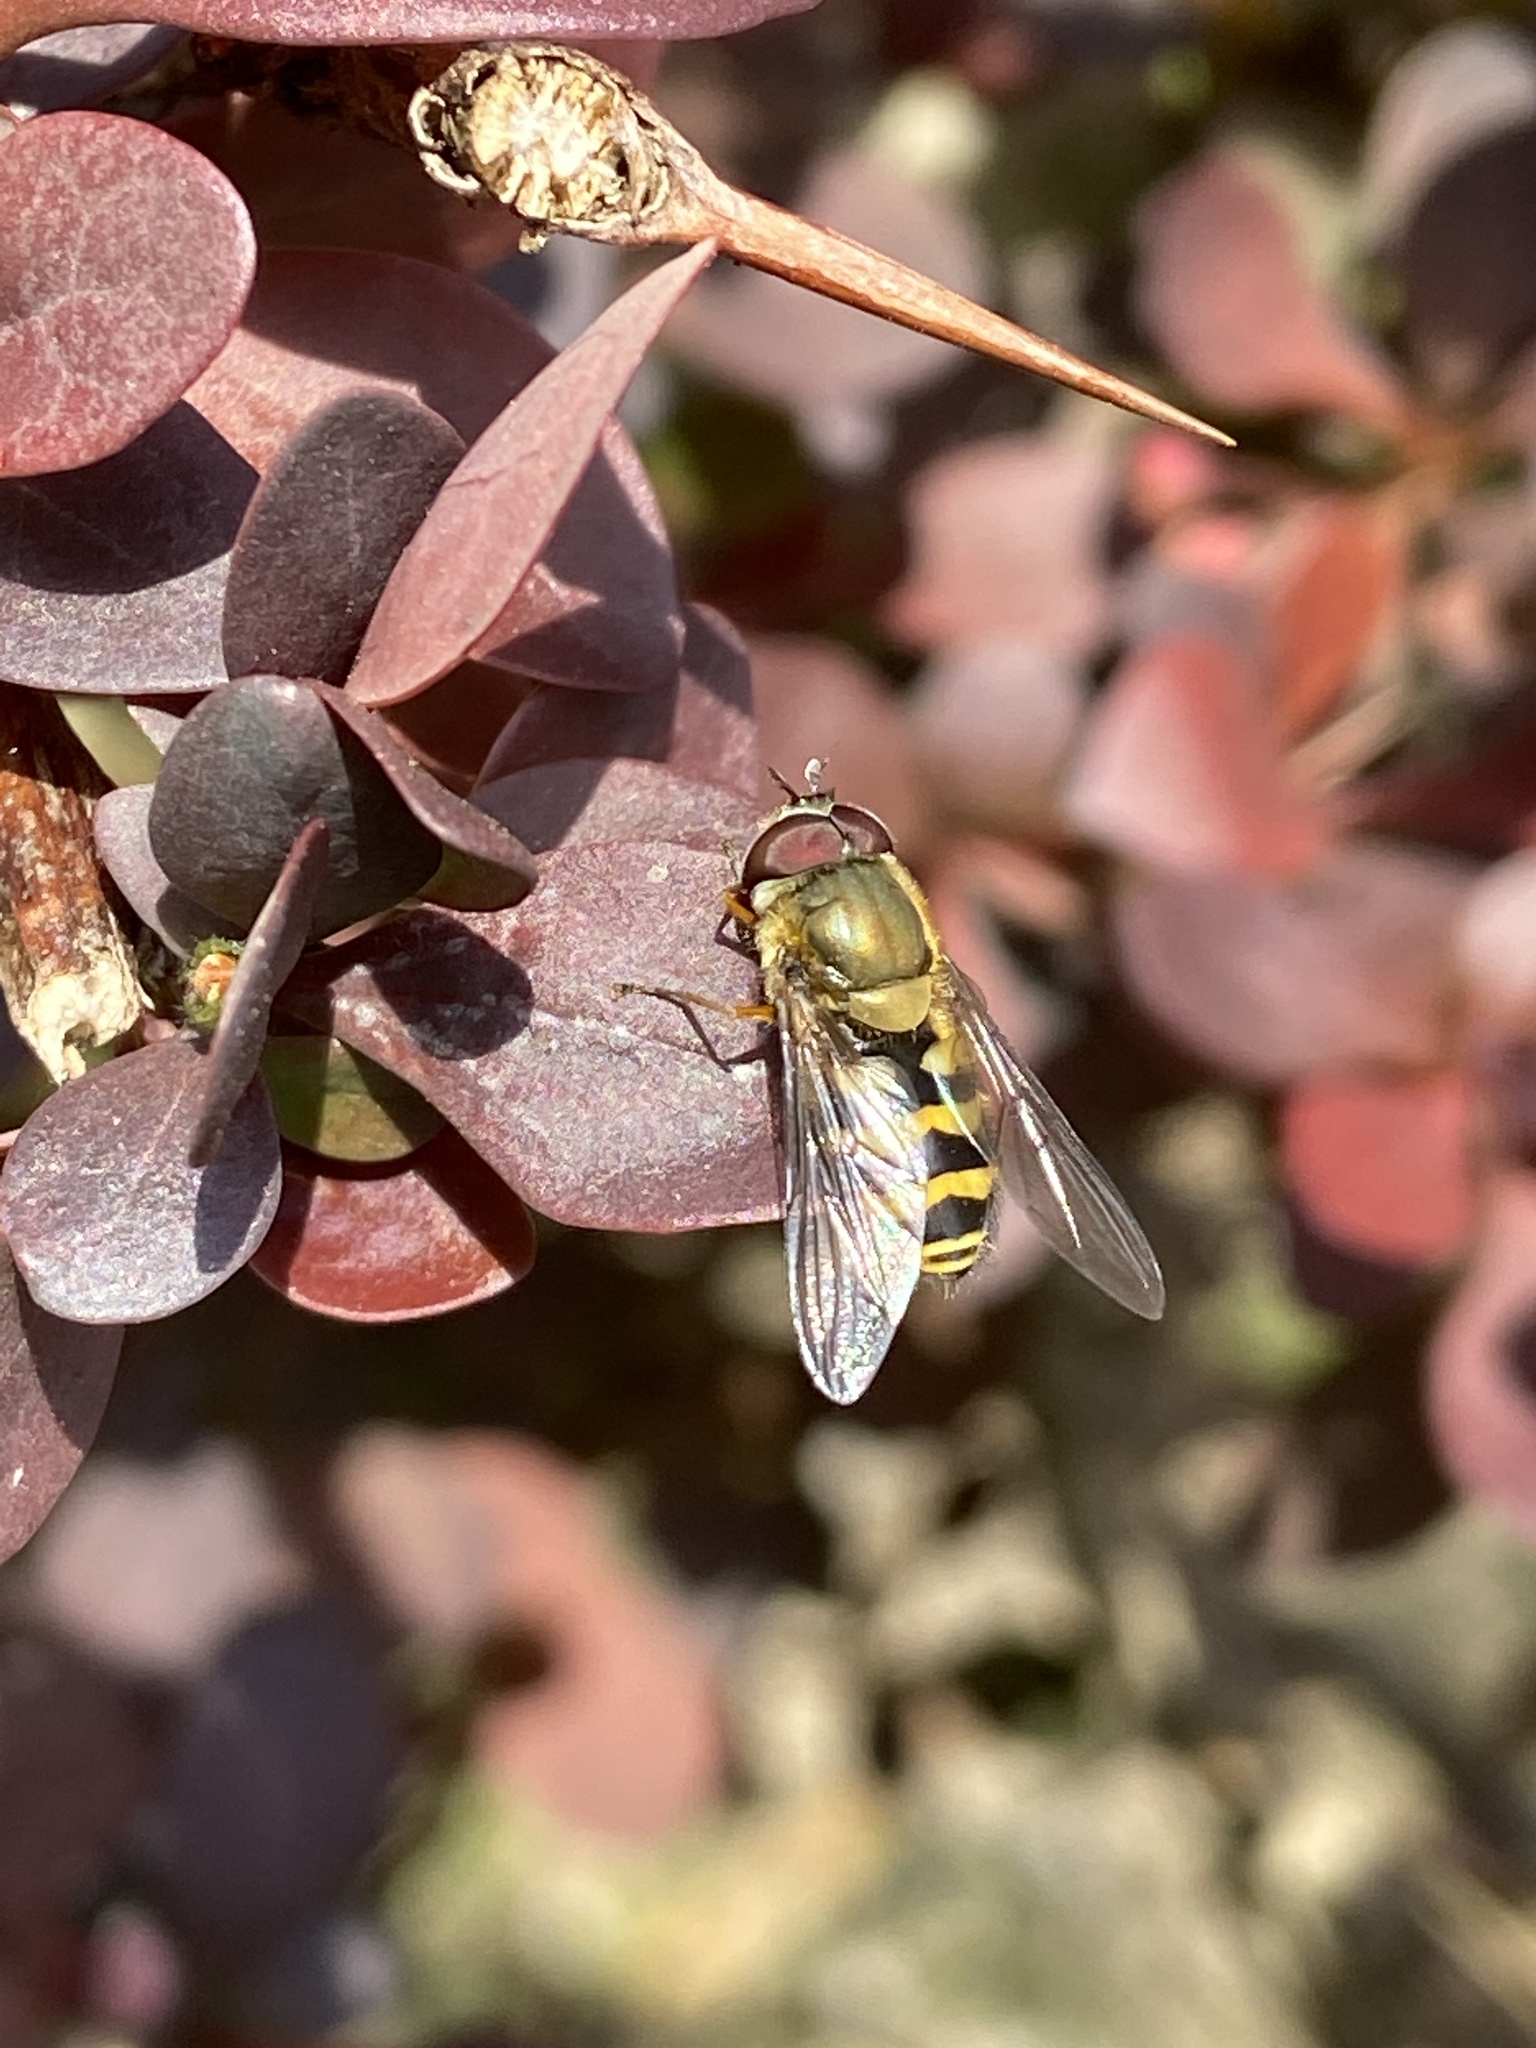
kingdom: Animalia
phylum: Arthropoda
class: Insecta
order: Diptera
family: Syrphidae
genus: Syrphus
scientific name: Syrphus torvus
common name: Hairy-eyed flower fly
